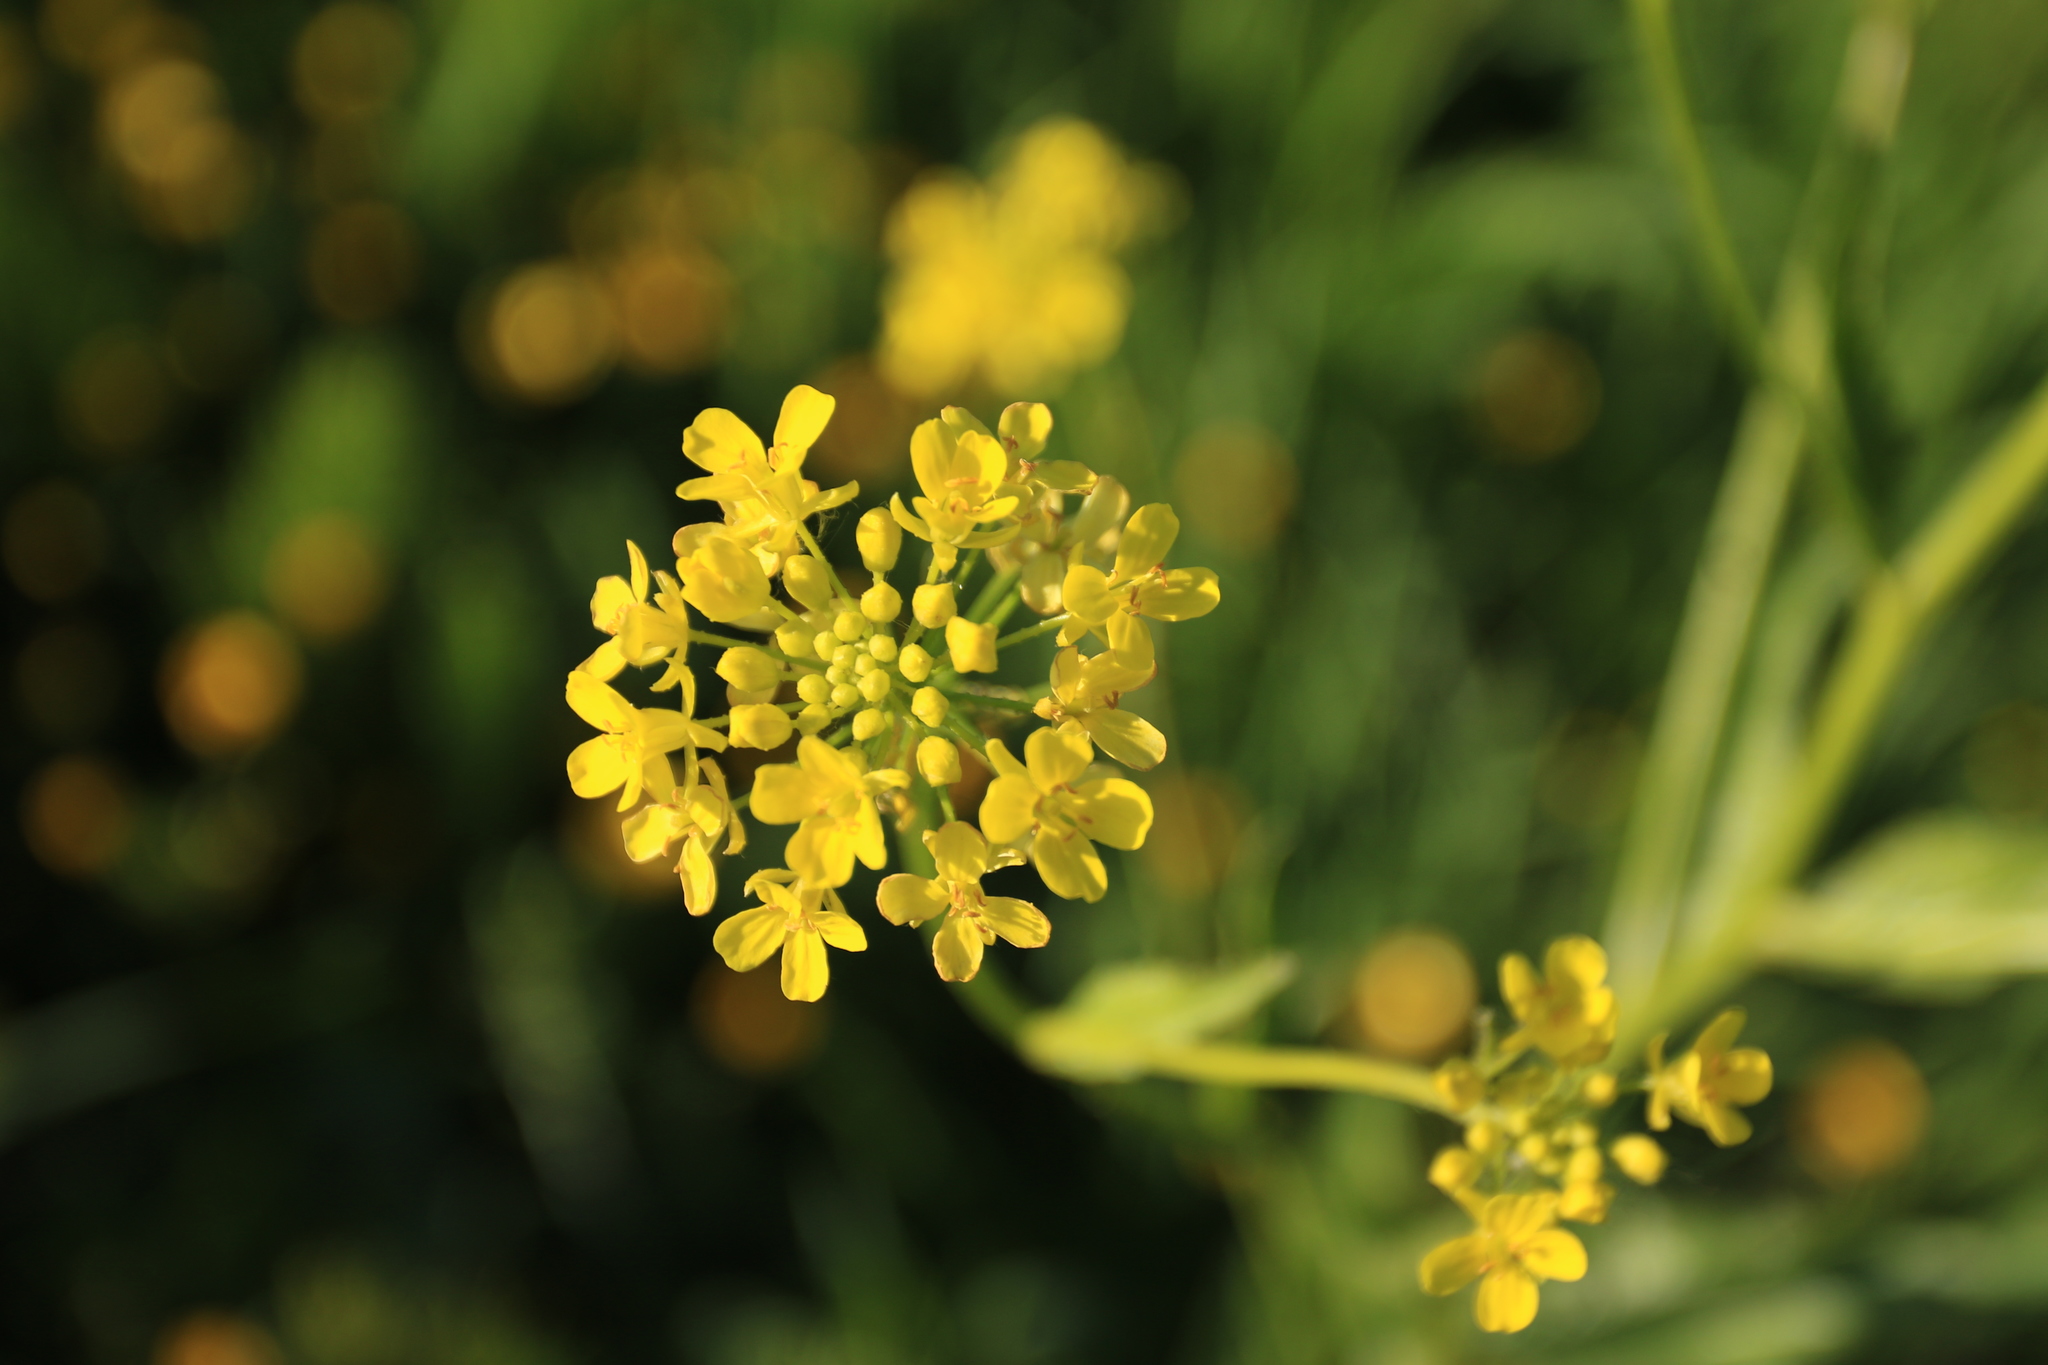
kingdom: Plantae
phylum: Tracheophyta
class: Magnoliopsida
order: Brassicales
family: Brassicaceae
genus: Bunias
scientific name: Bunias orientalis
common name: Warty-cabbage
